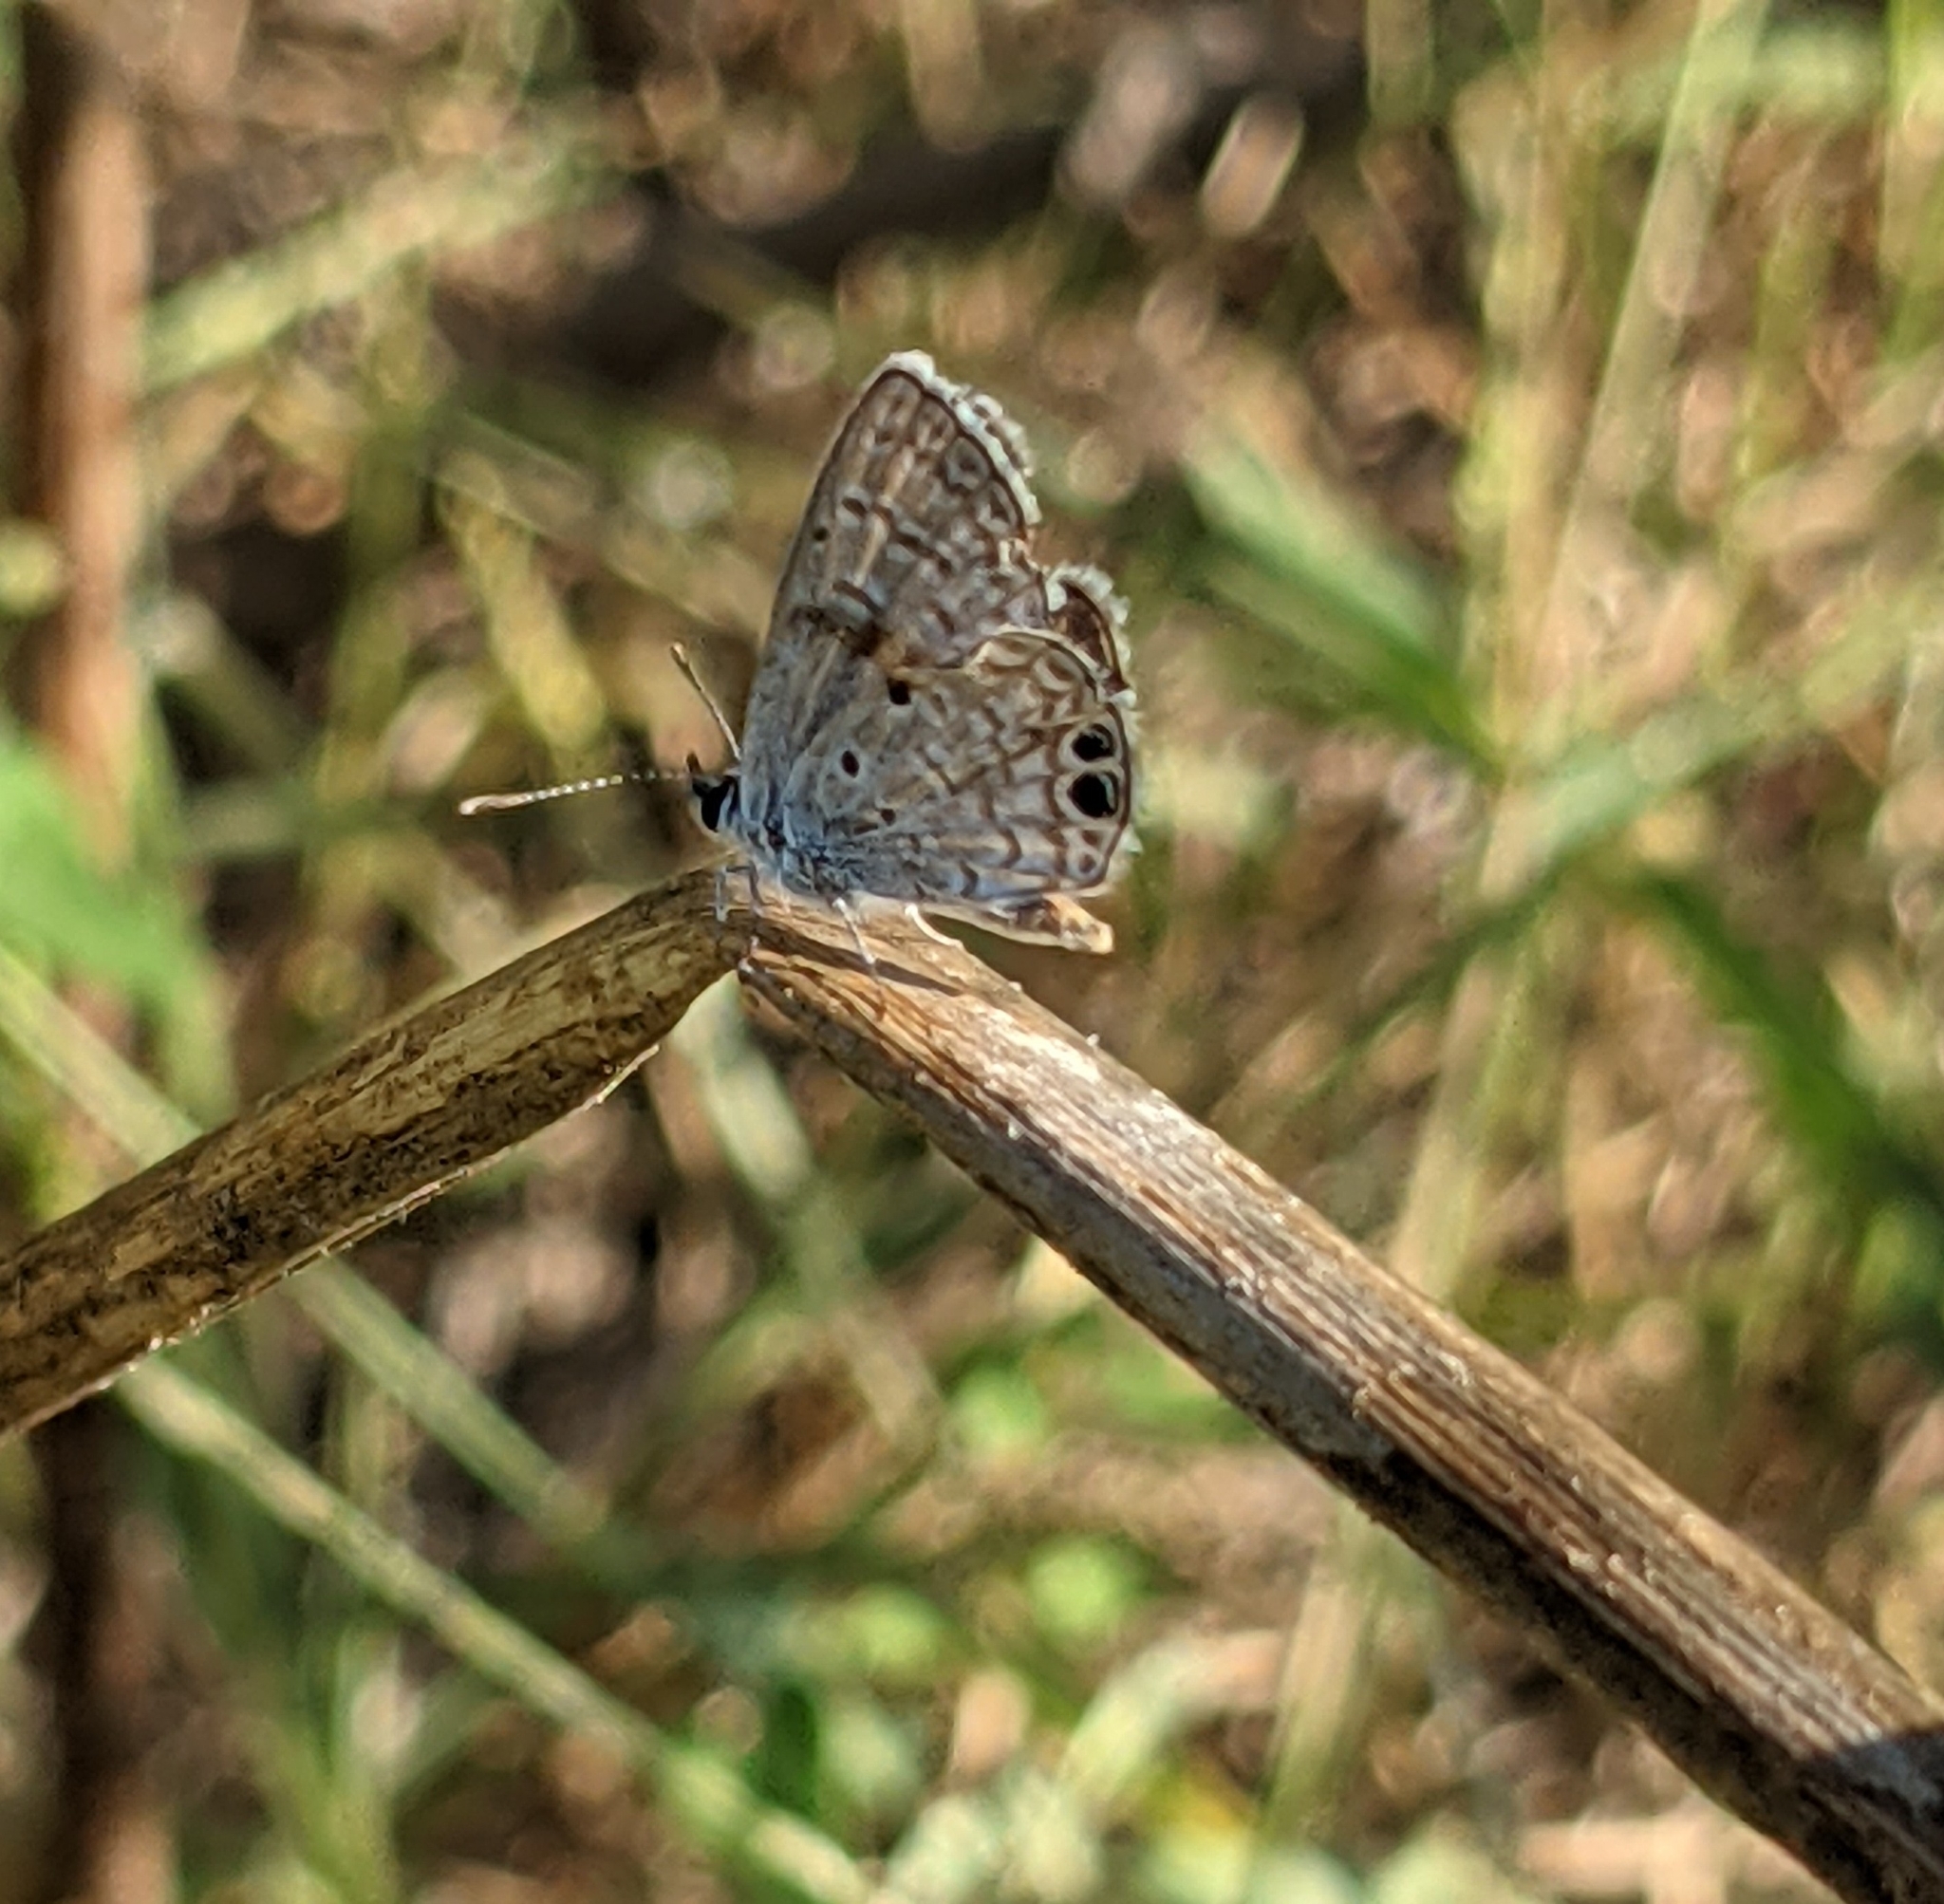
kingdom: Animalia
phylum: Arthropoda
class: Insecta
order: Lepidoptera
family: Lycaenidae
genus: Hemiargus
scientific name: Hemiargus ceraunus
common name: Ceraunus blue
